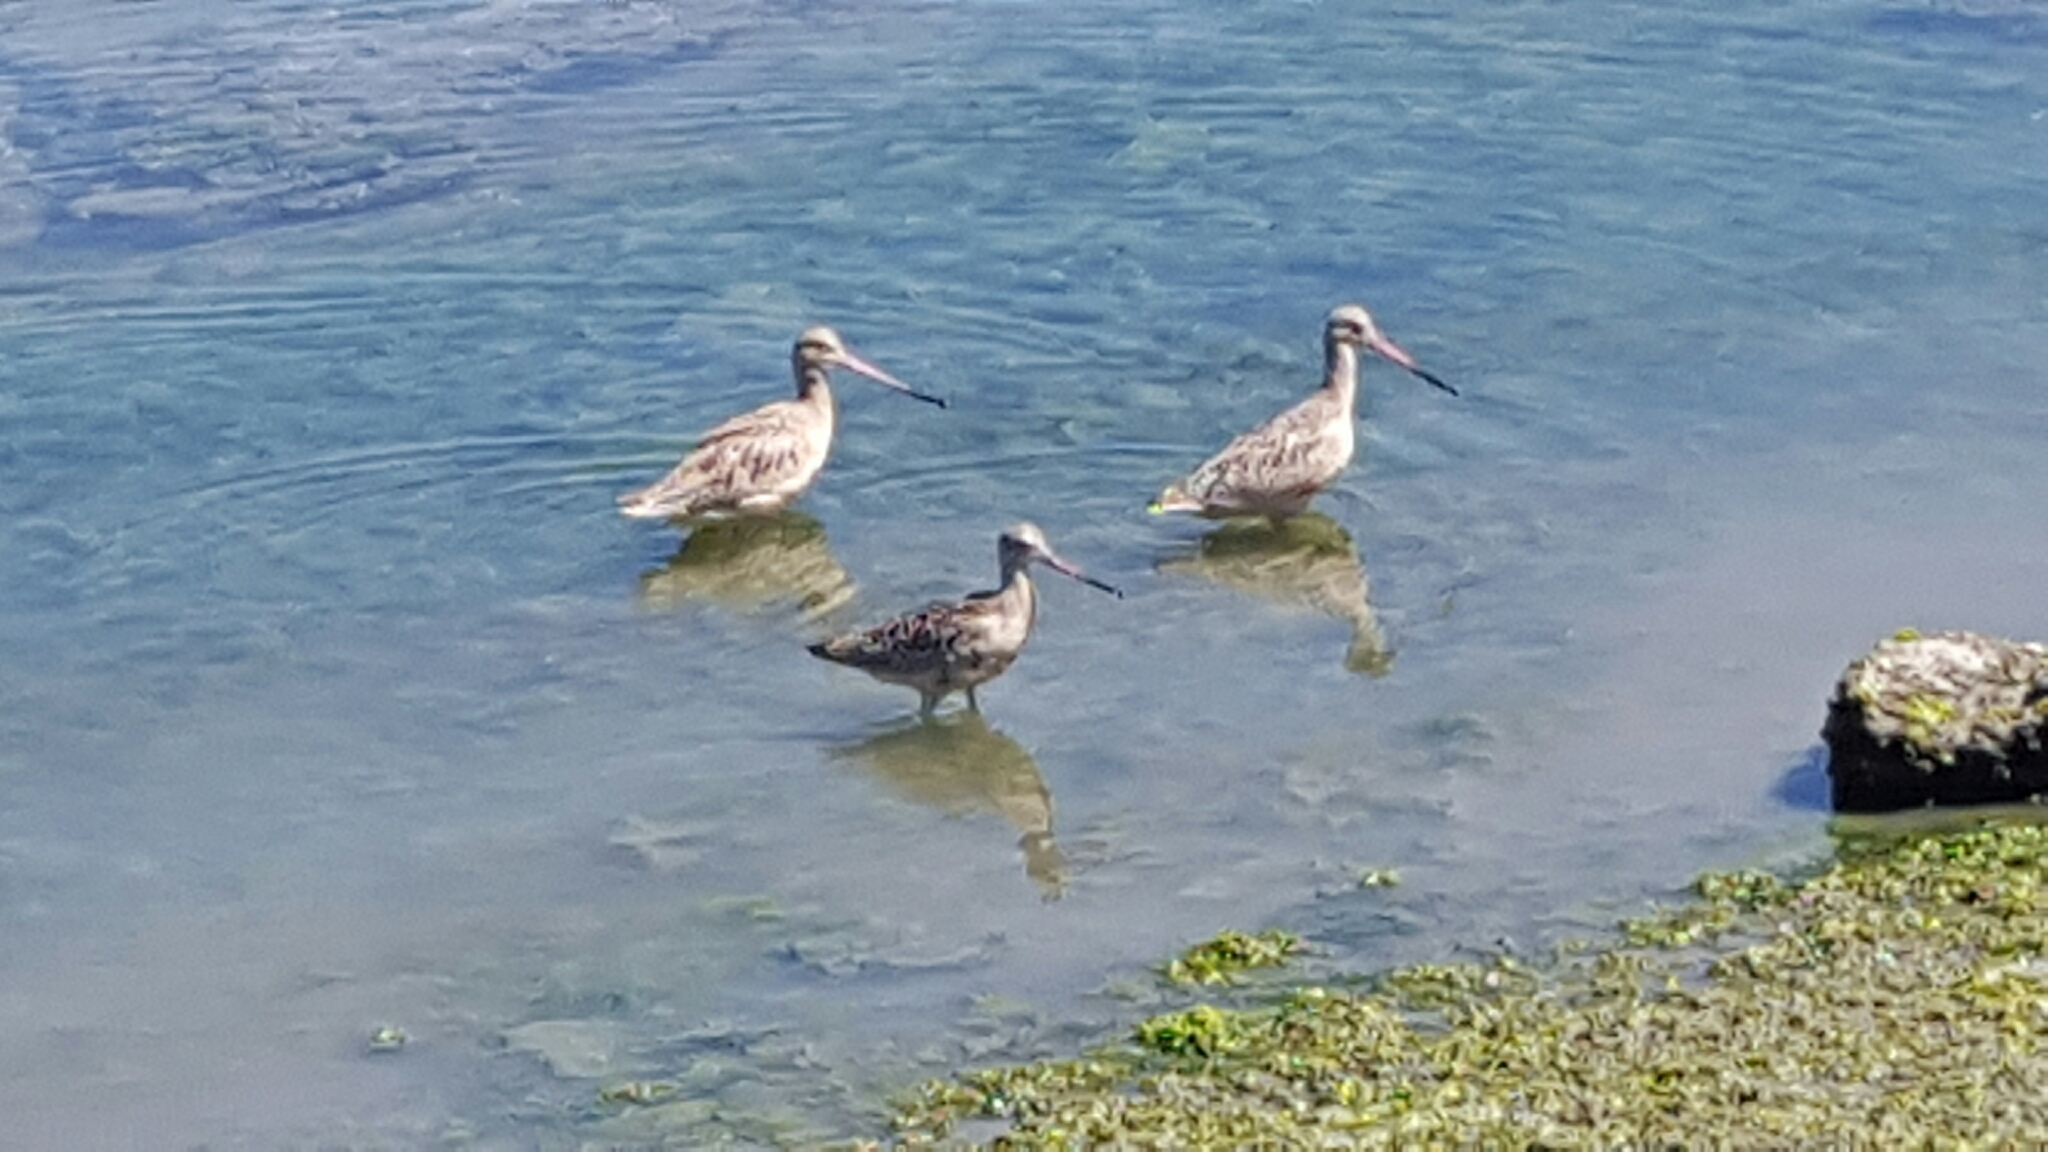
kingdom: Animalia
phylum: Chordata
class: Aves
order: Charadriiformes
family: Scolopacidae
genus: Limosa
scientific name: Limosa fedoa
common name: Marbled godwit
